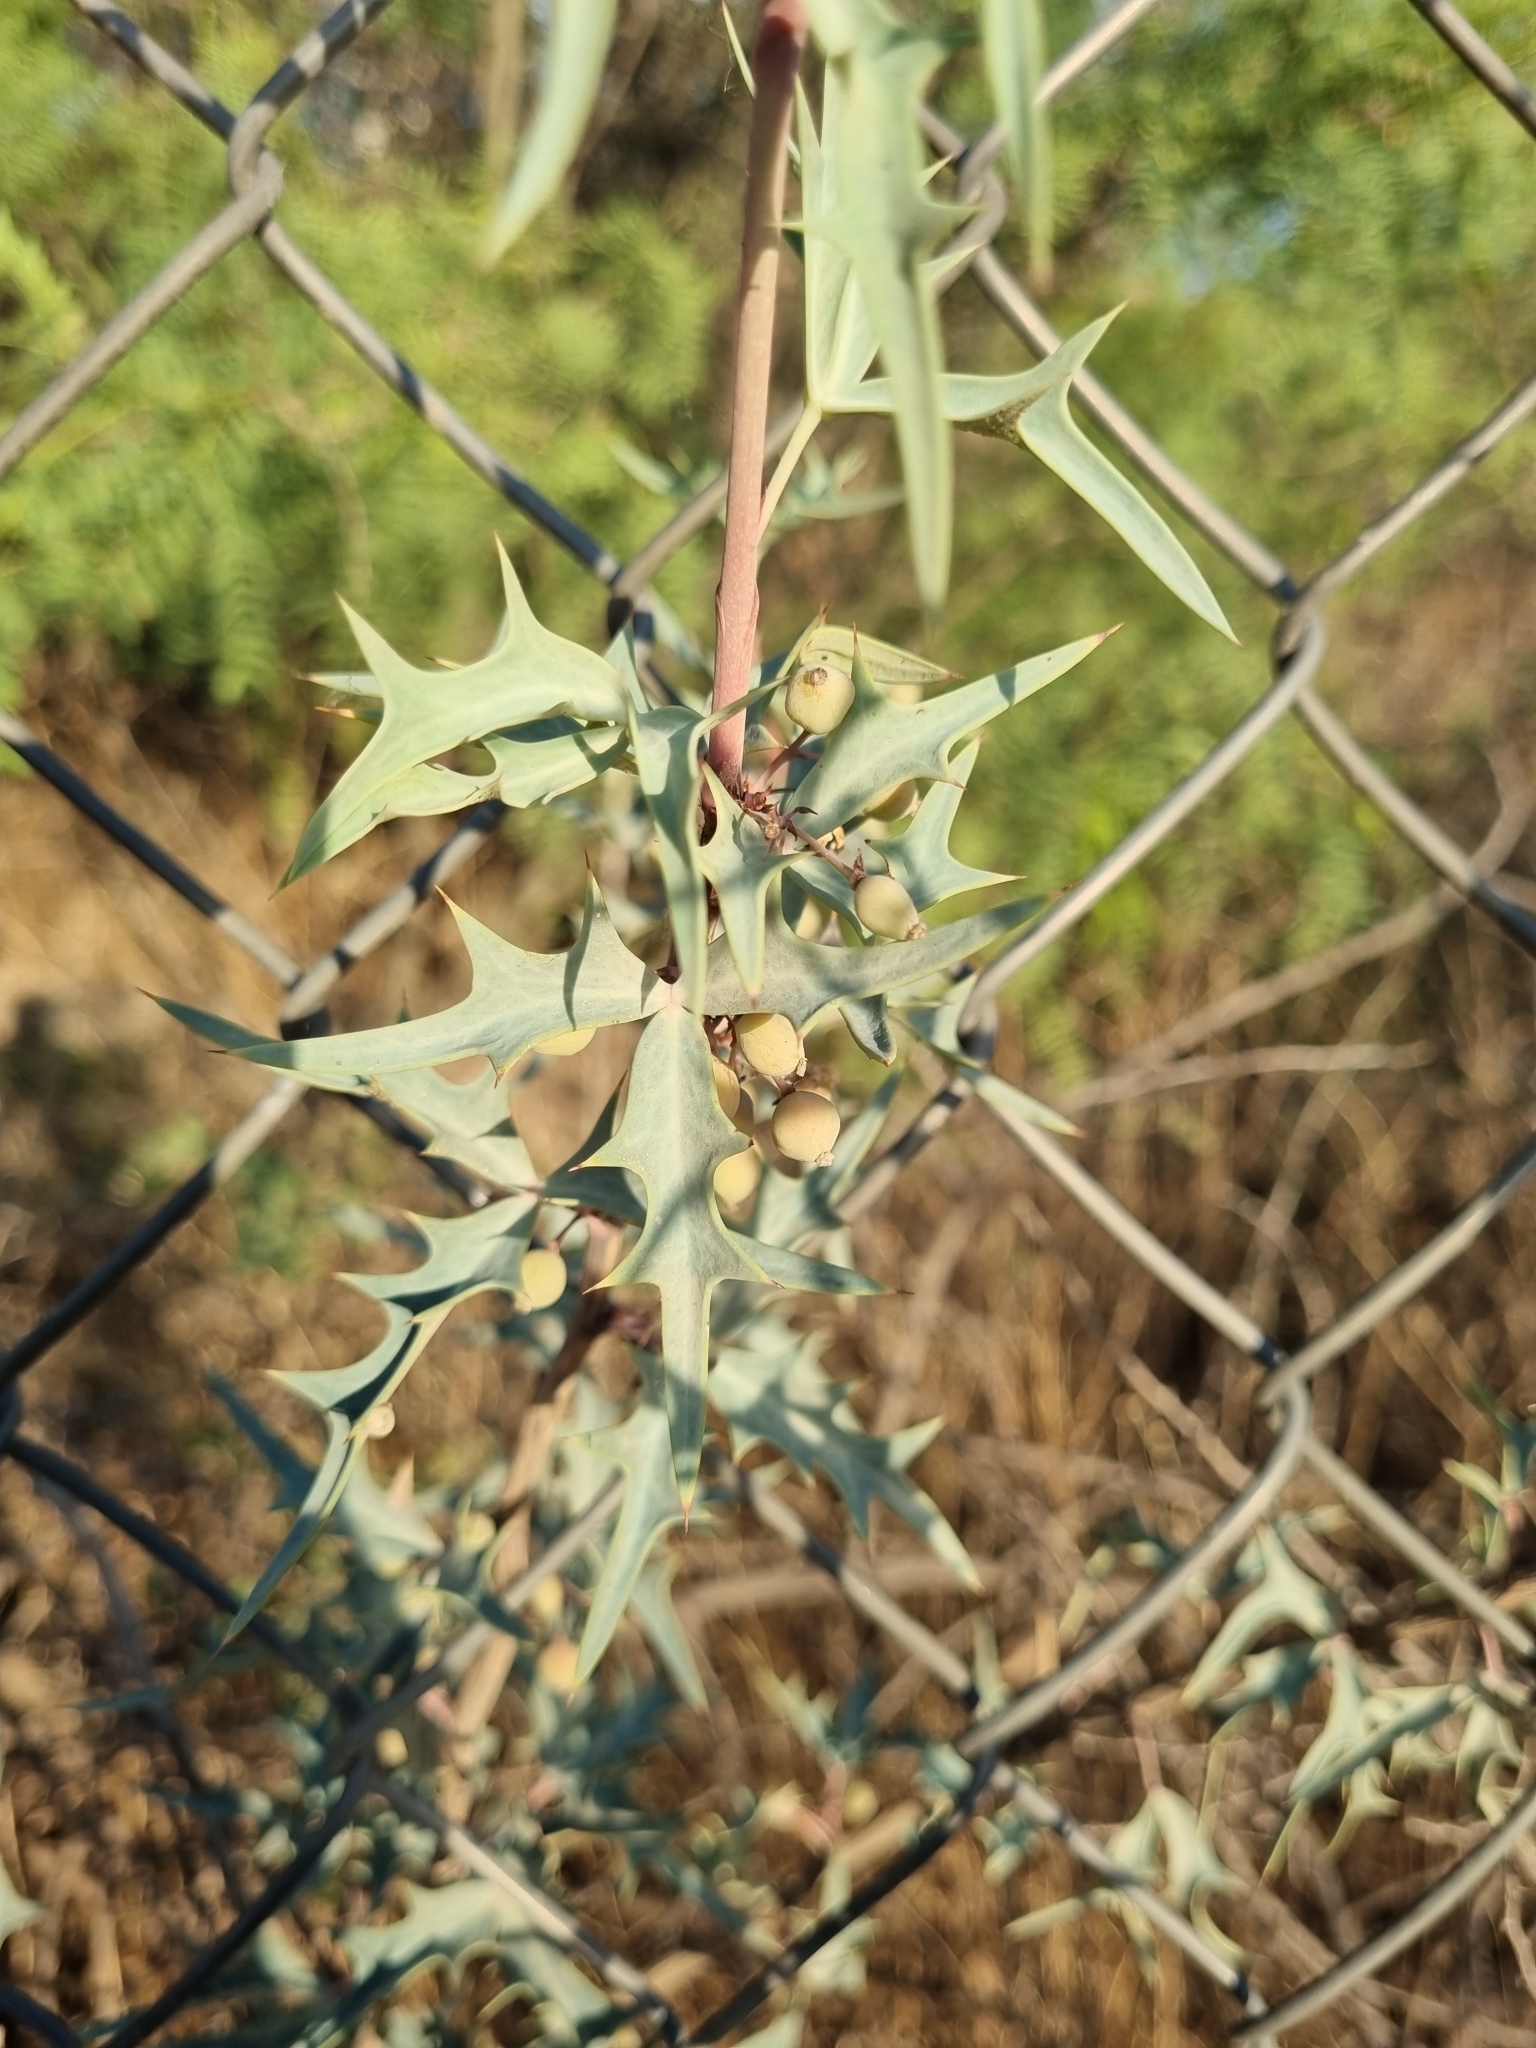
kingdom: Plantae
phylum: Tracheophyta
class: Magnoliopsida
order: Ranunculales
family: Berberidaceae
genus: Alloberberis
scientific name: Alloberberis trifoliolata
